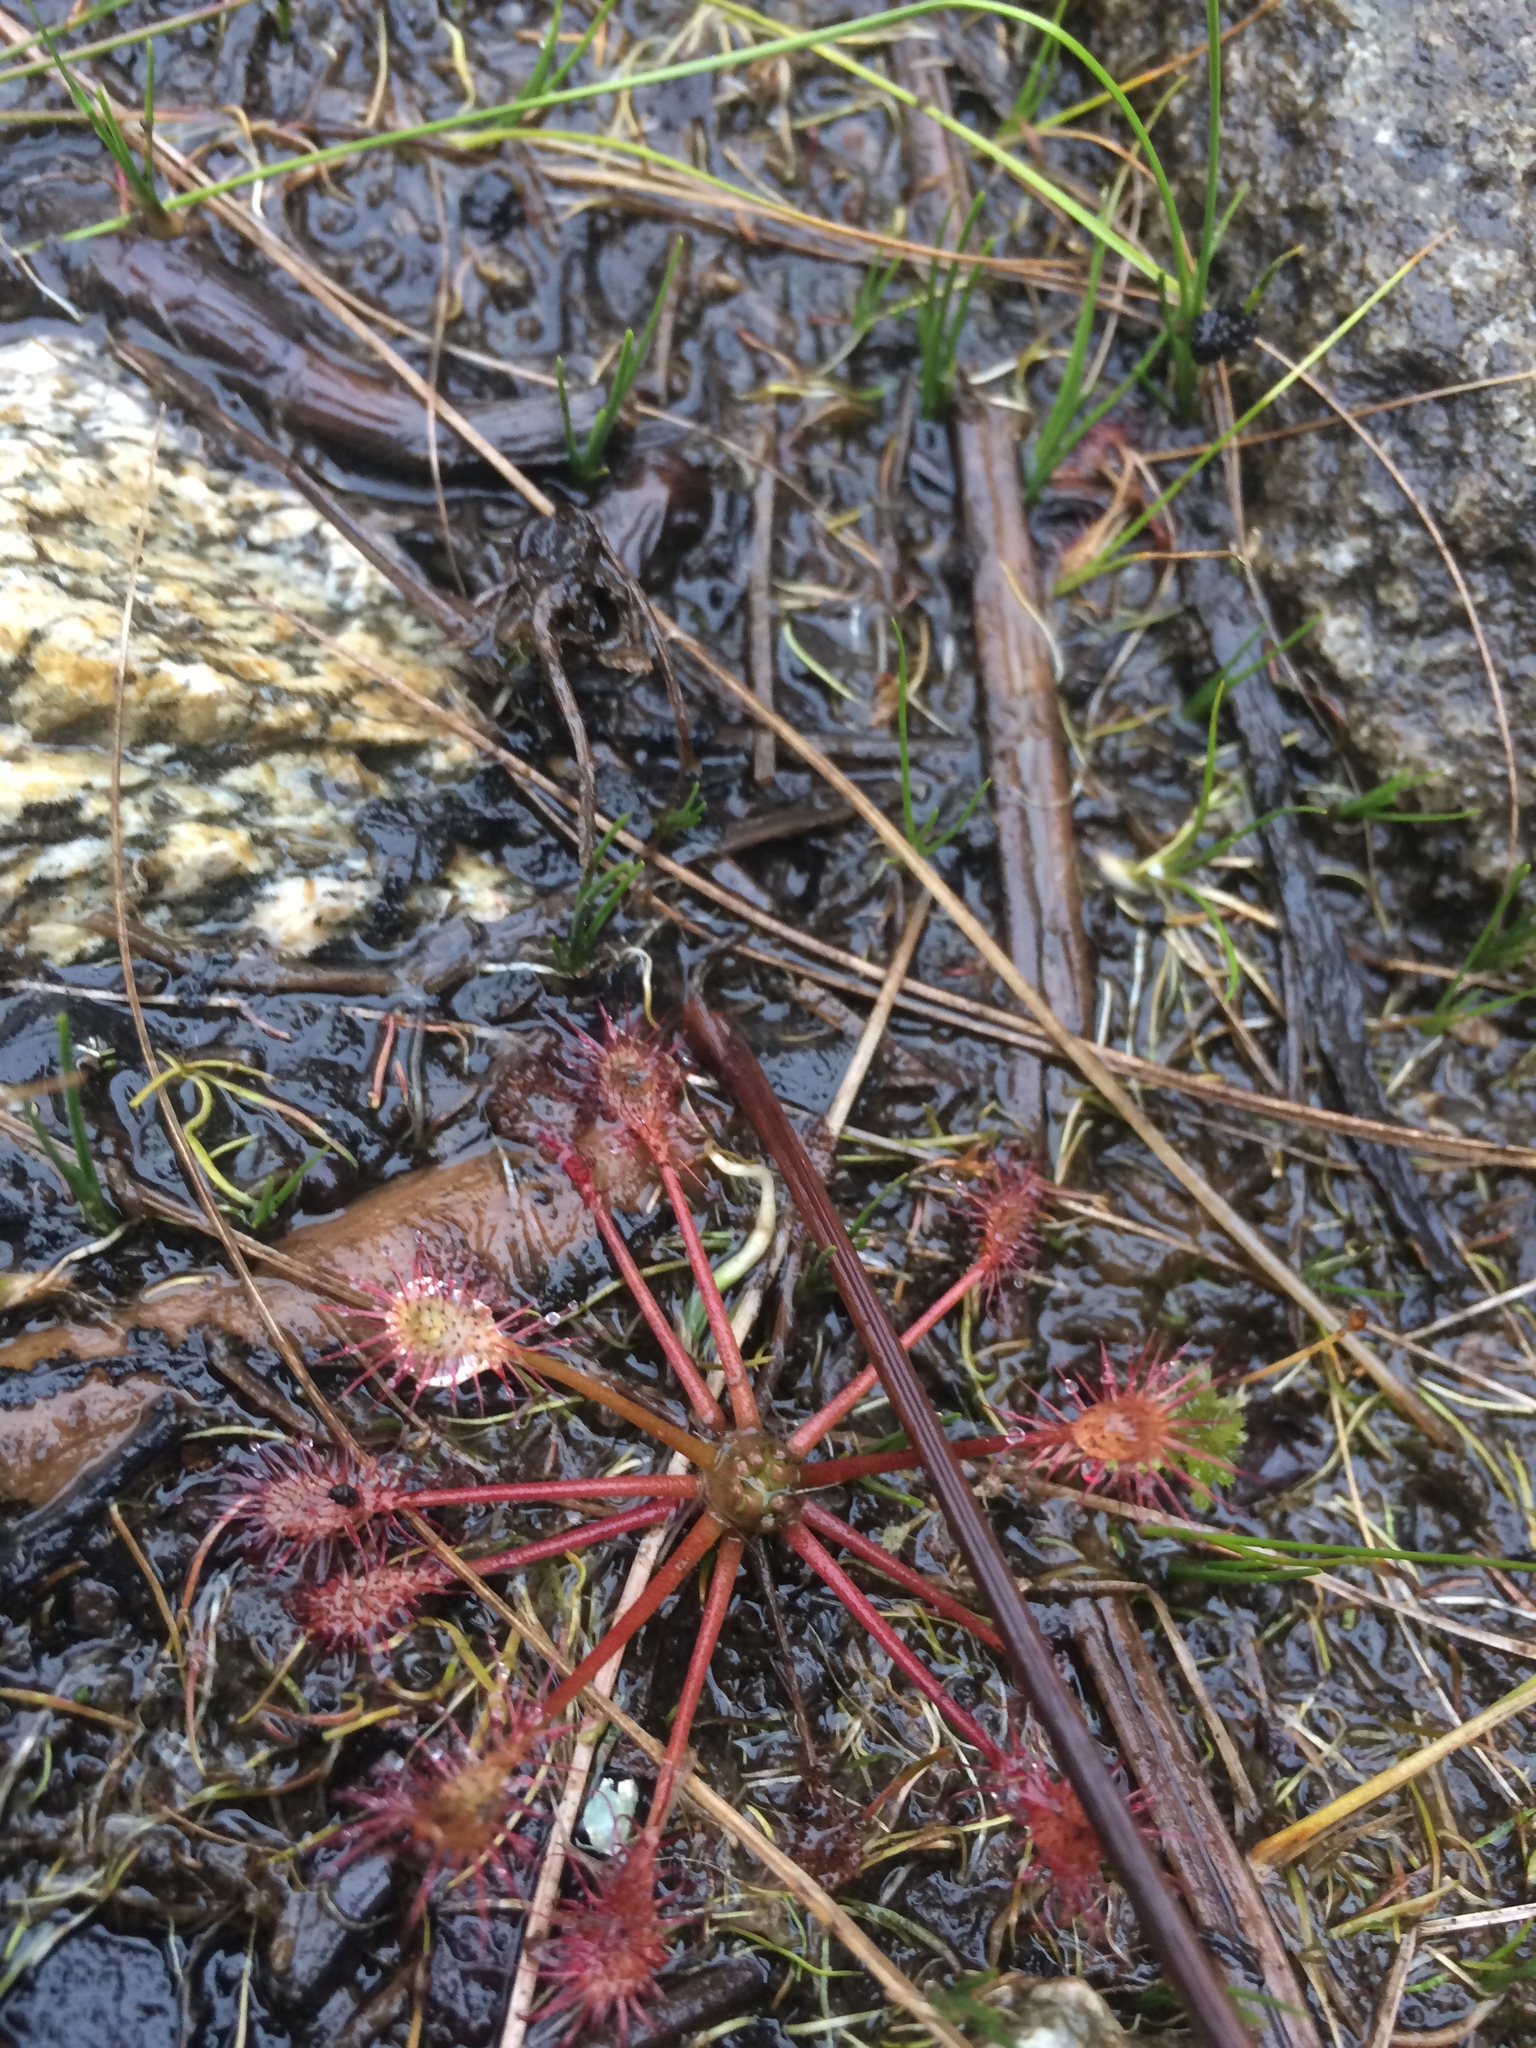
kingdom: Plantae
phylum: Tracheophyta
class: Magnoliopsida
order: Caryophyllales
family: Droseraceae
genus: Drosera
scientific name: Drosera intermedia
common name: Oblong-leaved sundew
